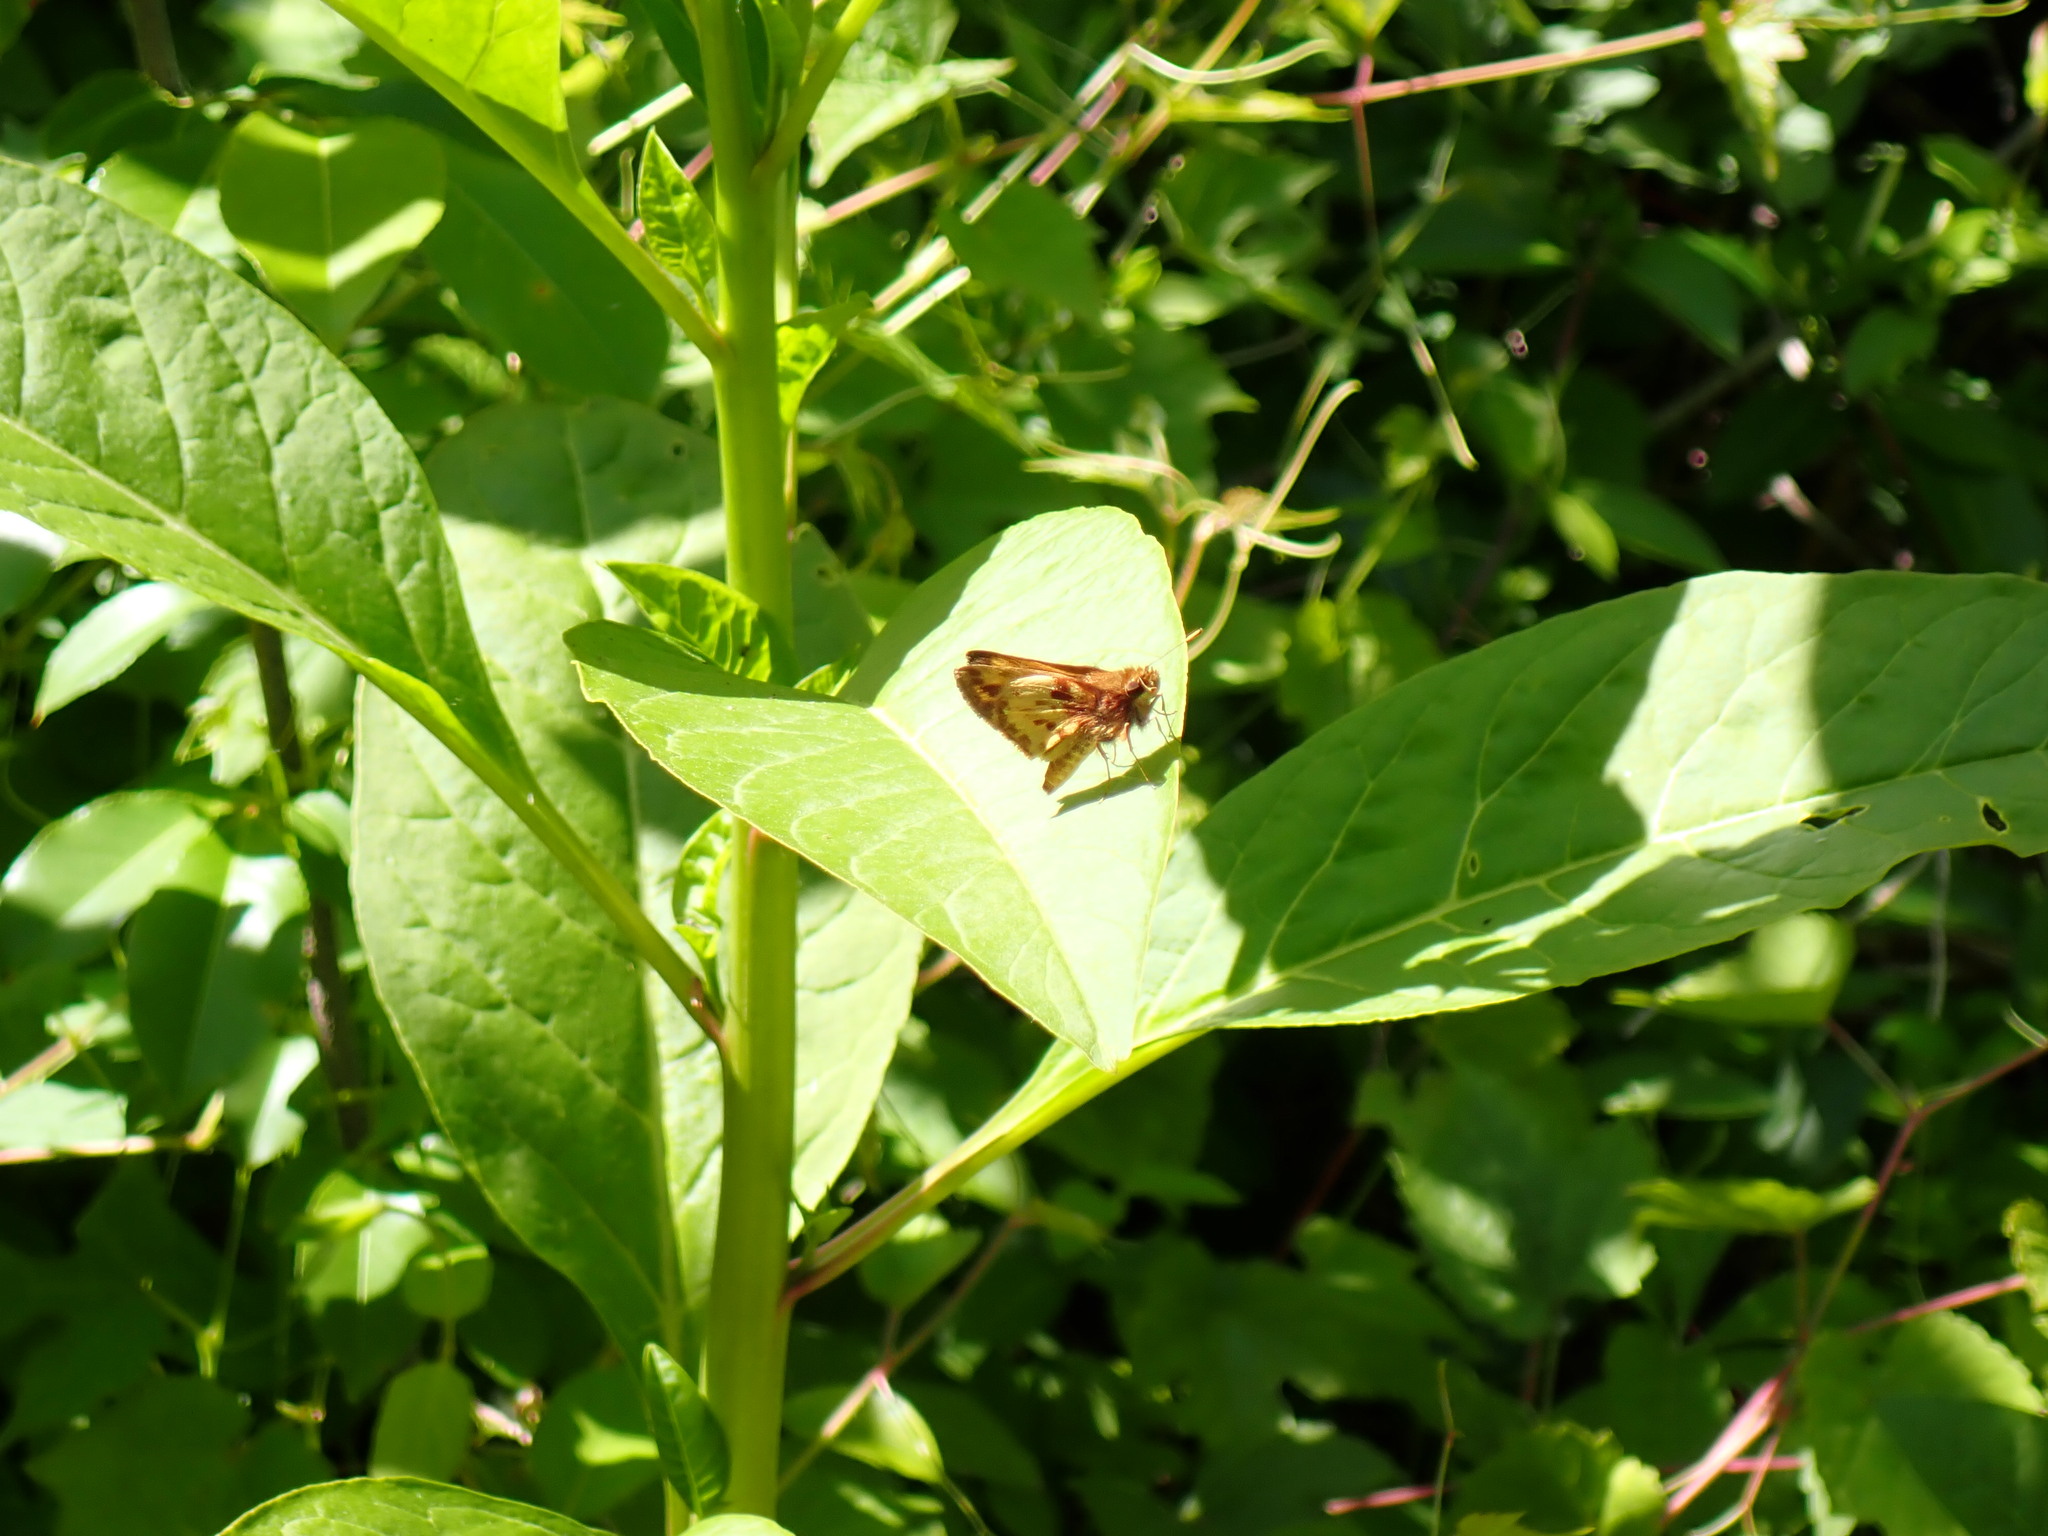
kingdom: Animalia
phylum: Arthropoda
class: Insecta
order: Lepidoptera
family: Hesperiidae
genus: Lon
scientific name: Lon zabulon
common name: Zabulon skipper
